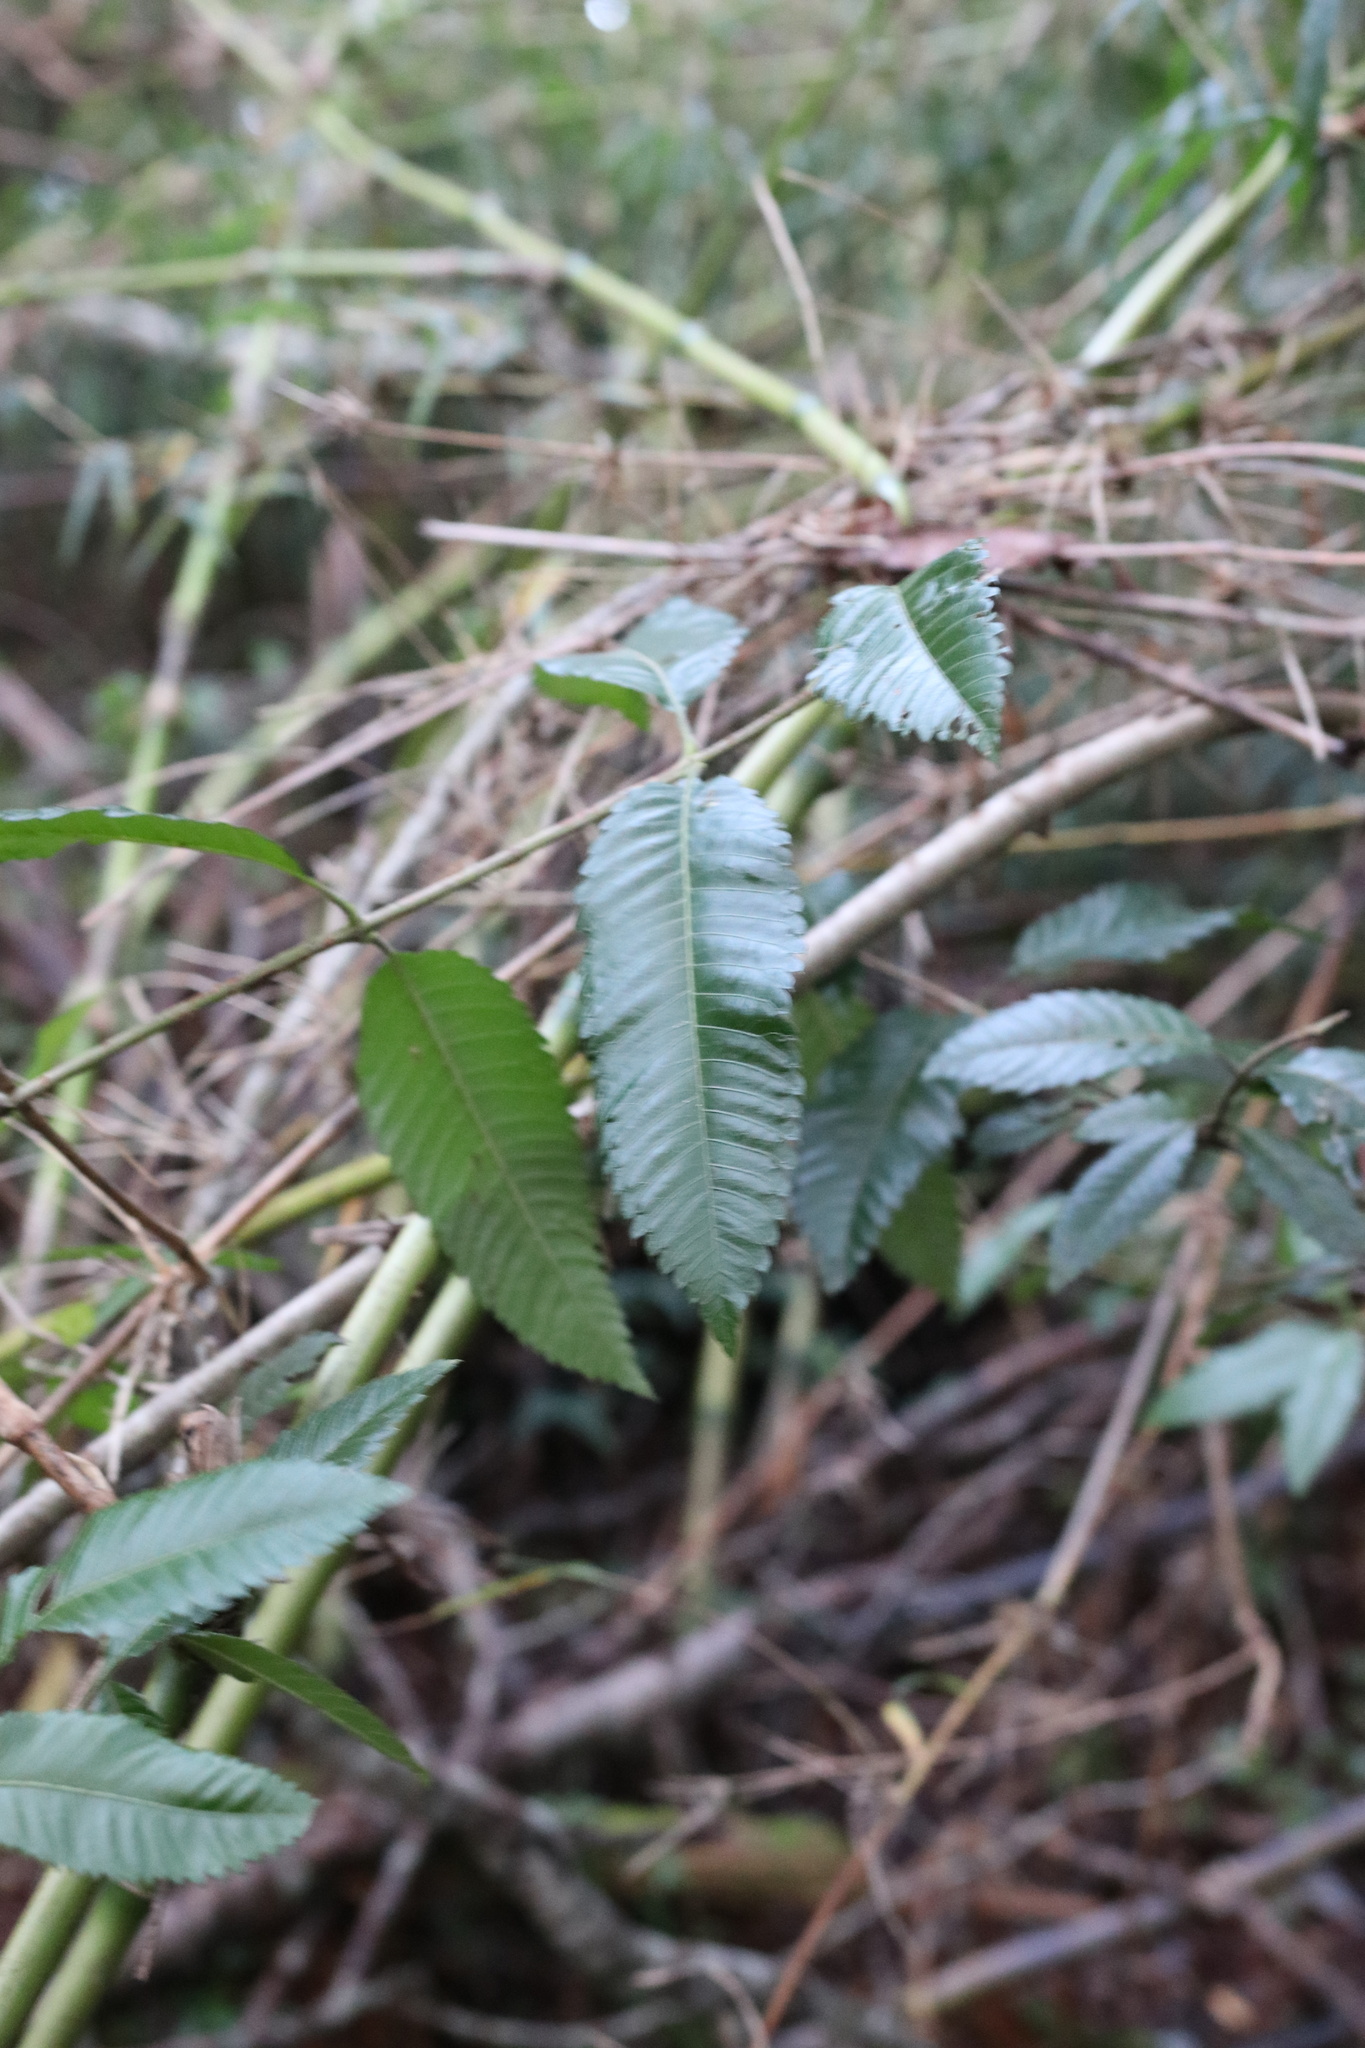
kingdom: Plantae
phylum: Tracheophyta
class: Magnoliopsida
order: Oxalidales
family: Cunoniaceae
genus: Caldcluvia
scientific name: Caldcluvia paniculata
